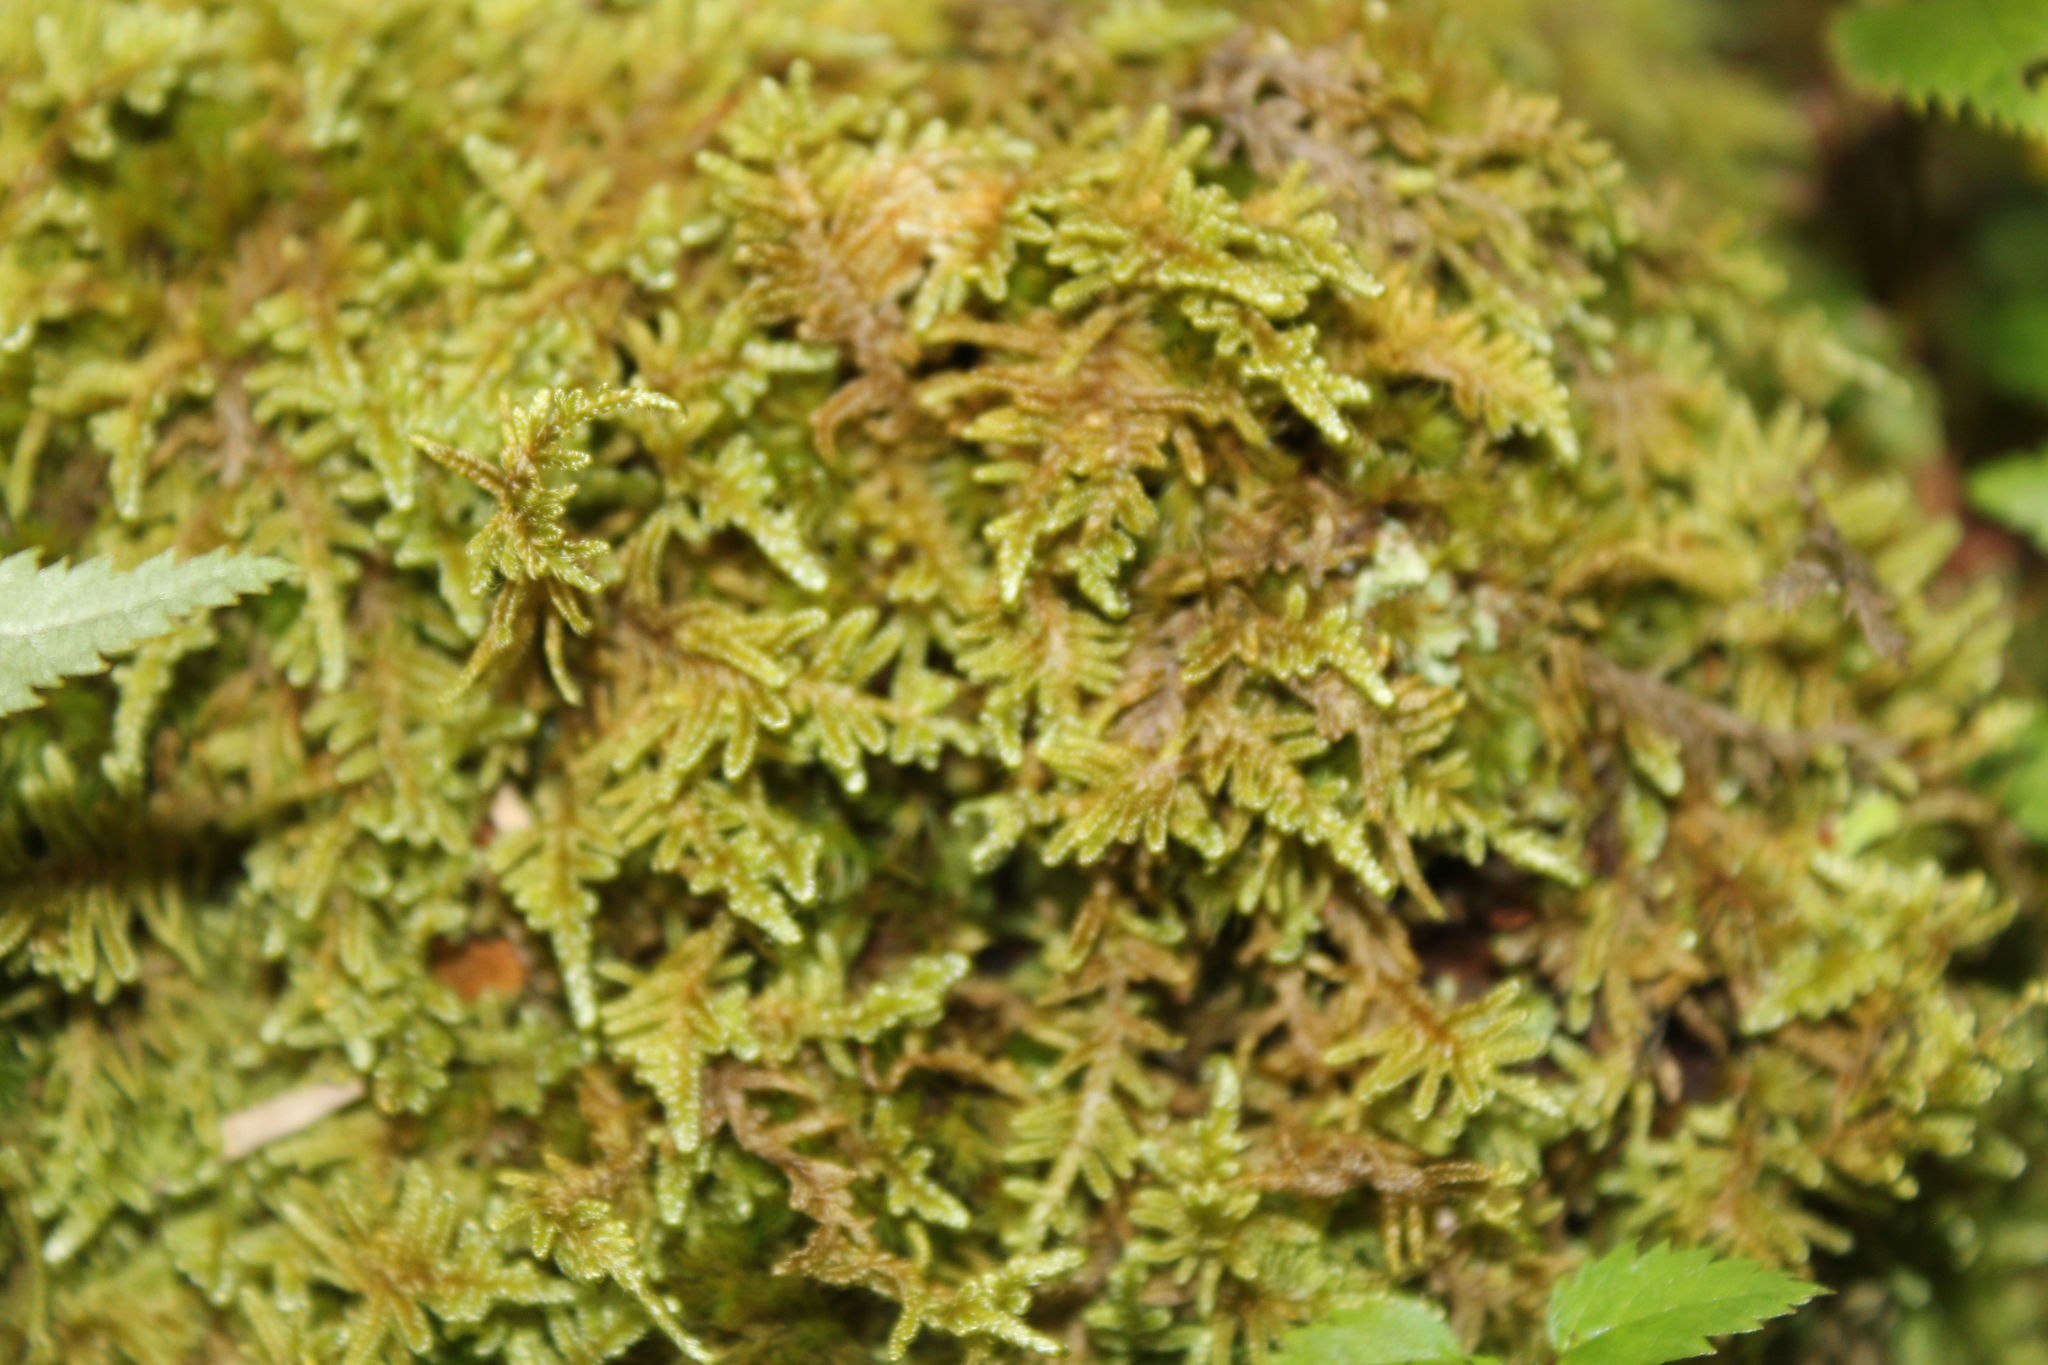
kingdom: Plantae
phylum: Bryophyta
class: Bryopsida
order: Hypnales
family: Callicladiaceae
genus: Callicladium
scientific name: Callicladium imponens
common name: Brocade moss
